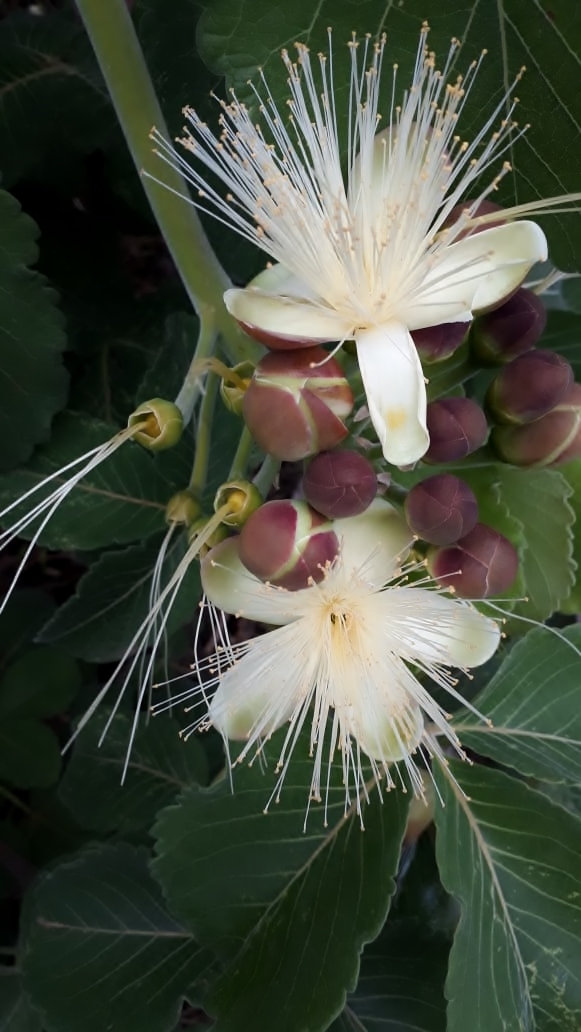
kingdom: Plantae
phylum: Tracheophyta
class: Magnoliopsida
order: Malpighiales
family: Caryocaraceae
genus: Caryocar
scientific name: Caryocar brasiliense
